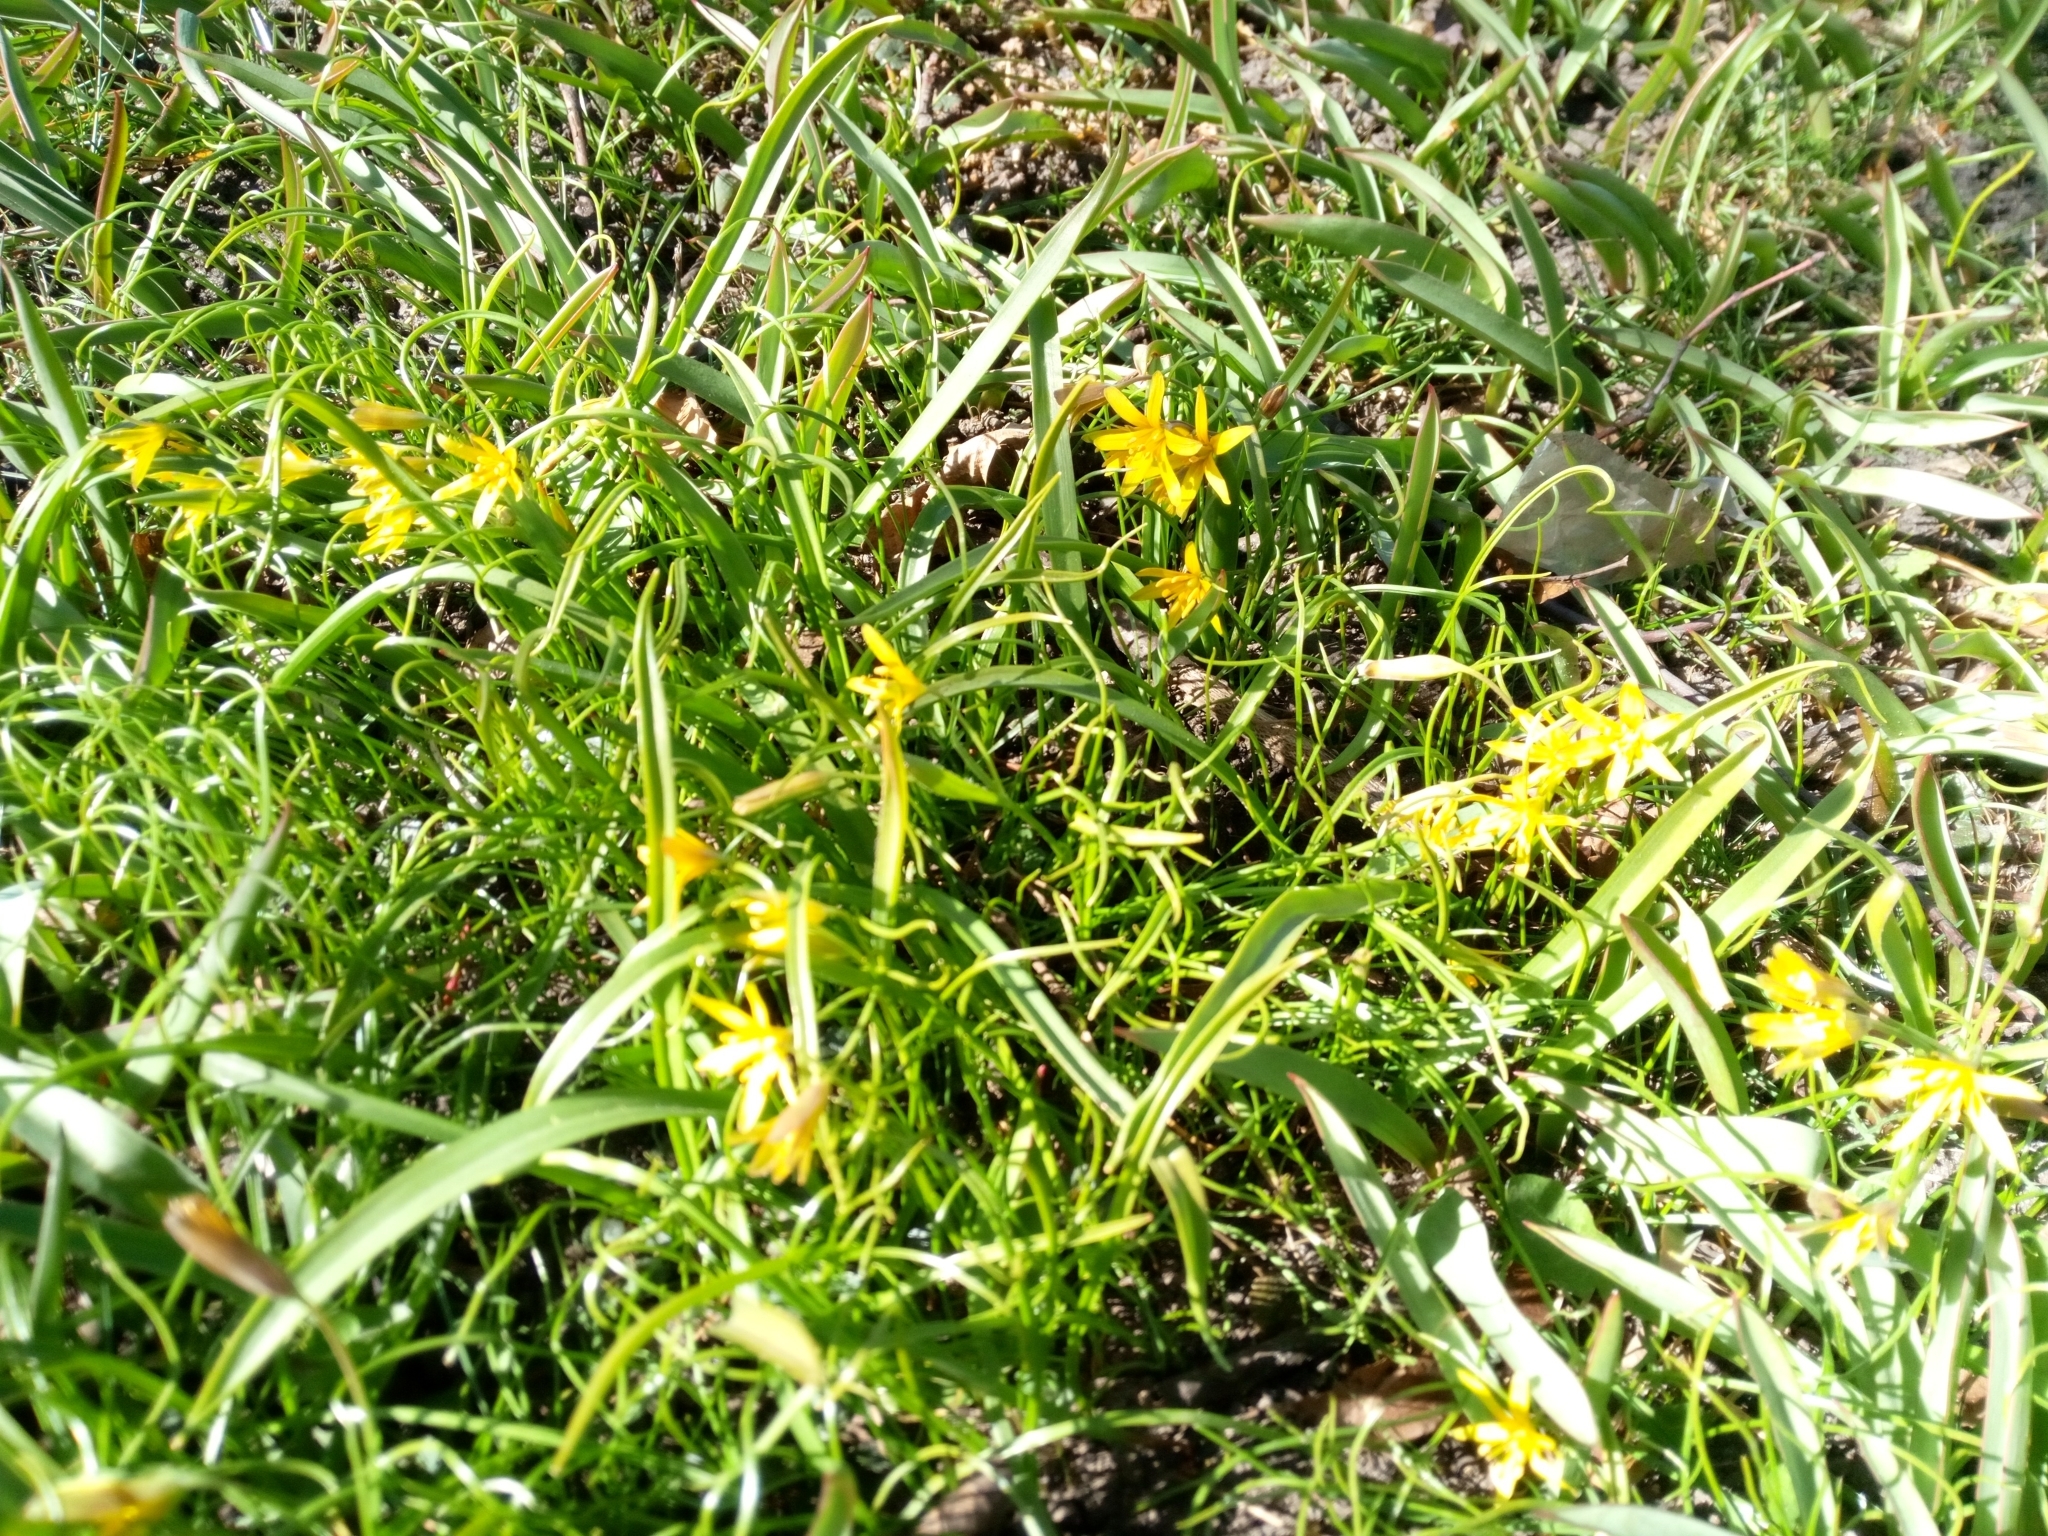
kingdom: Plantae
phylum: Tracheophyta
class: Liliopsida
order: Liliales
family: Liliaceae
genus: Gagea
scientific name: Gagea lutea
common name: Yellow star-of-bethlehem
